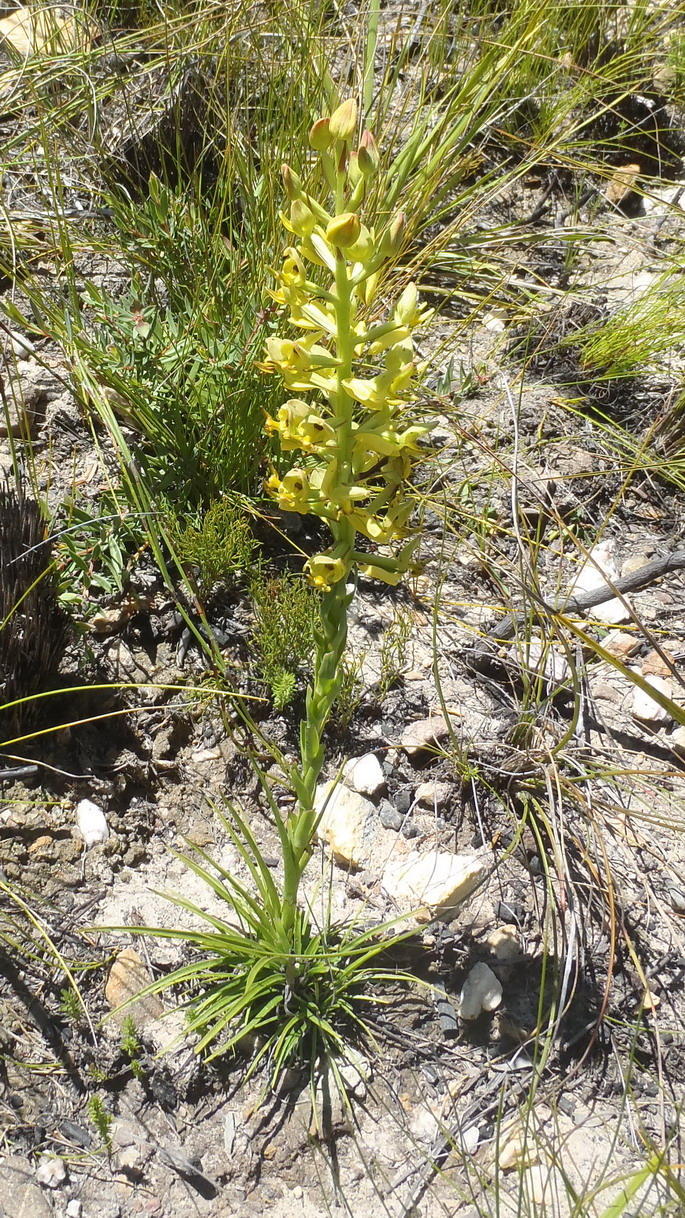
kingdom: Plantae
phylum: Tracheophyta
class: Liliopsida
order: Asparagales
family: Orchidaceae
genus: Ceratandra
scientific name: Ceratandra atrata
